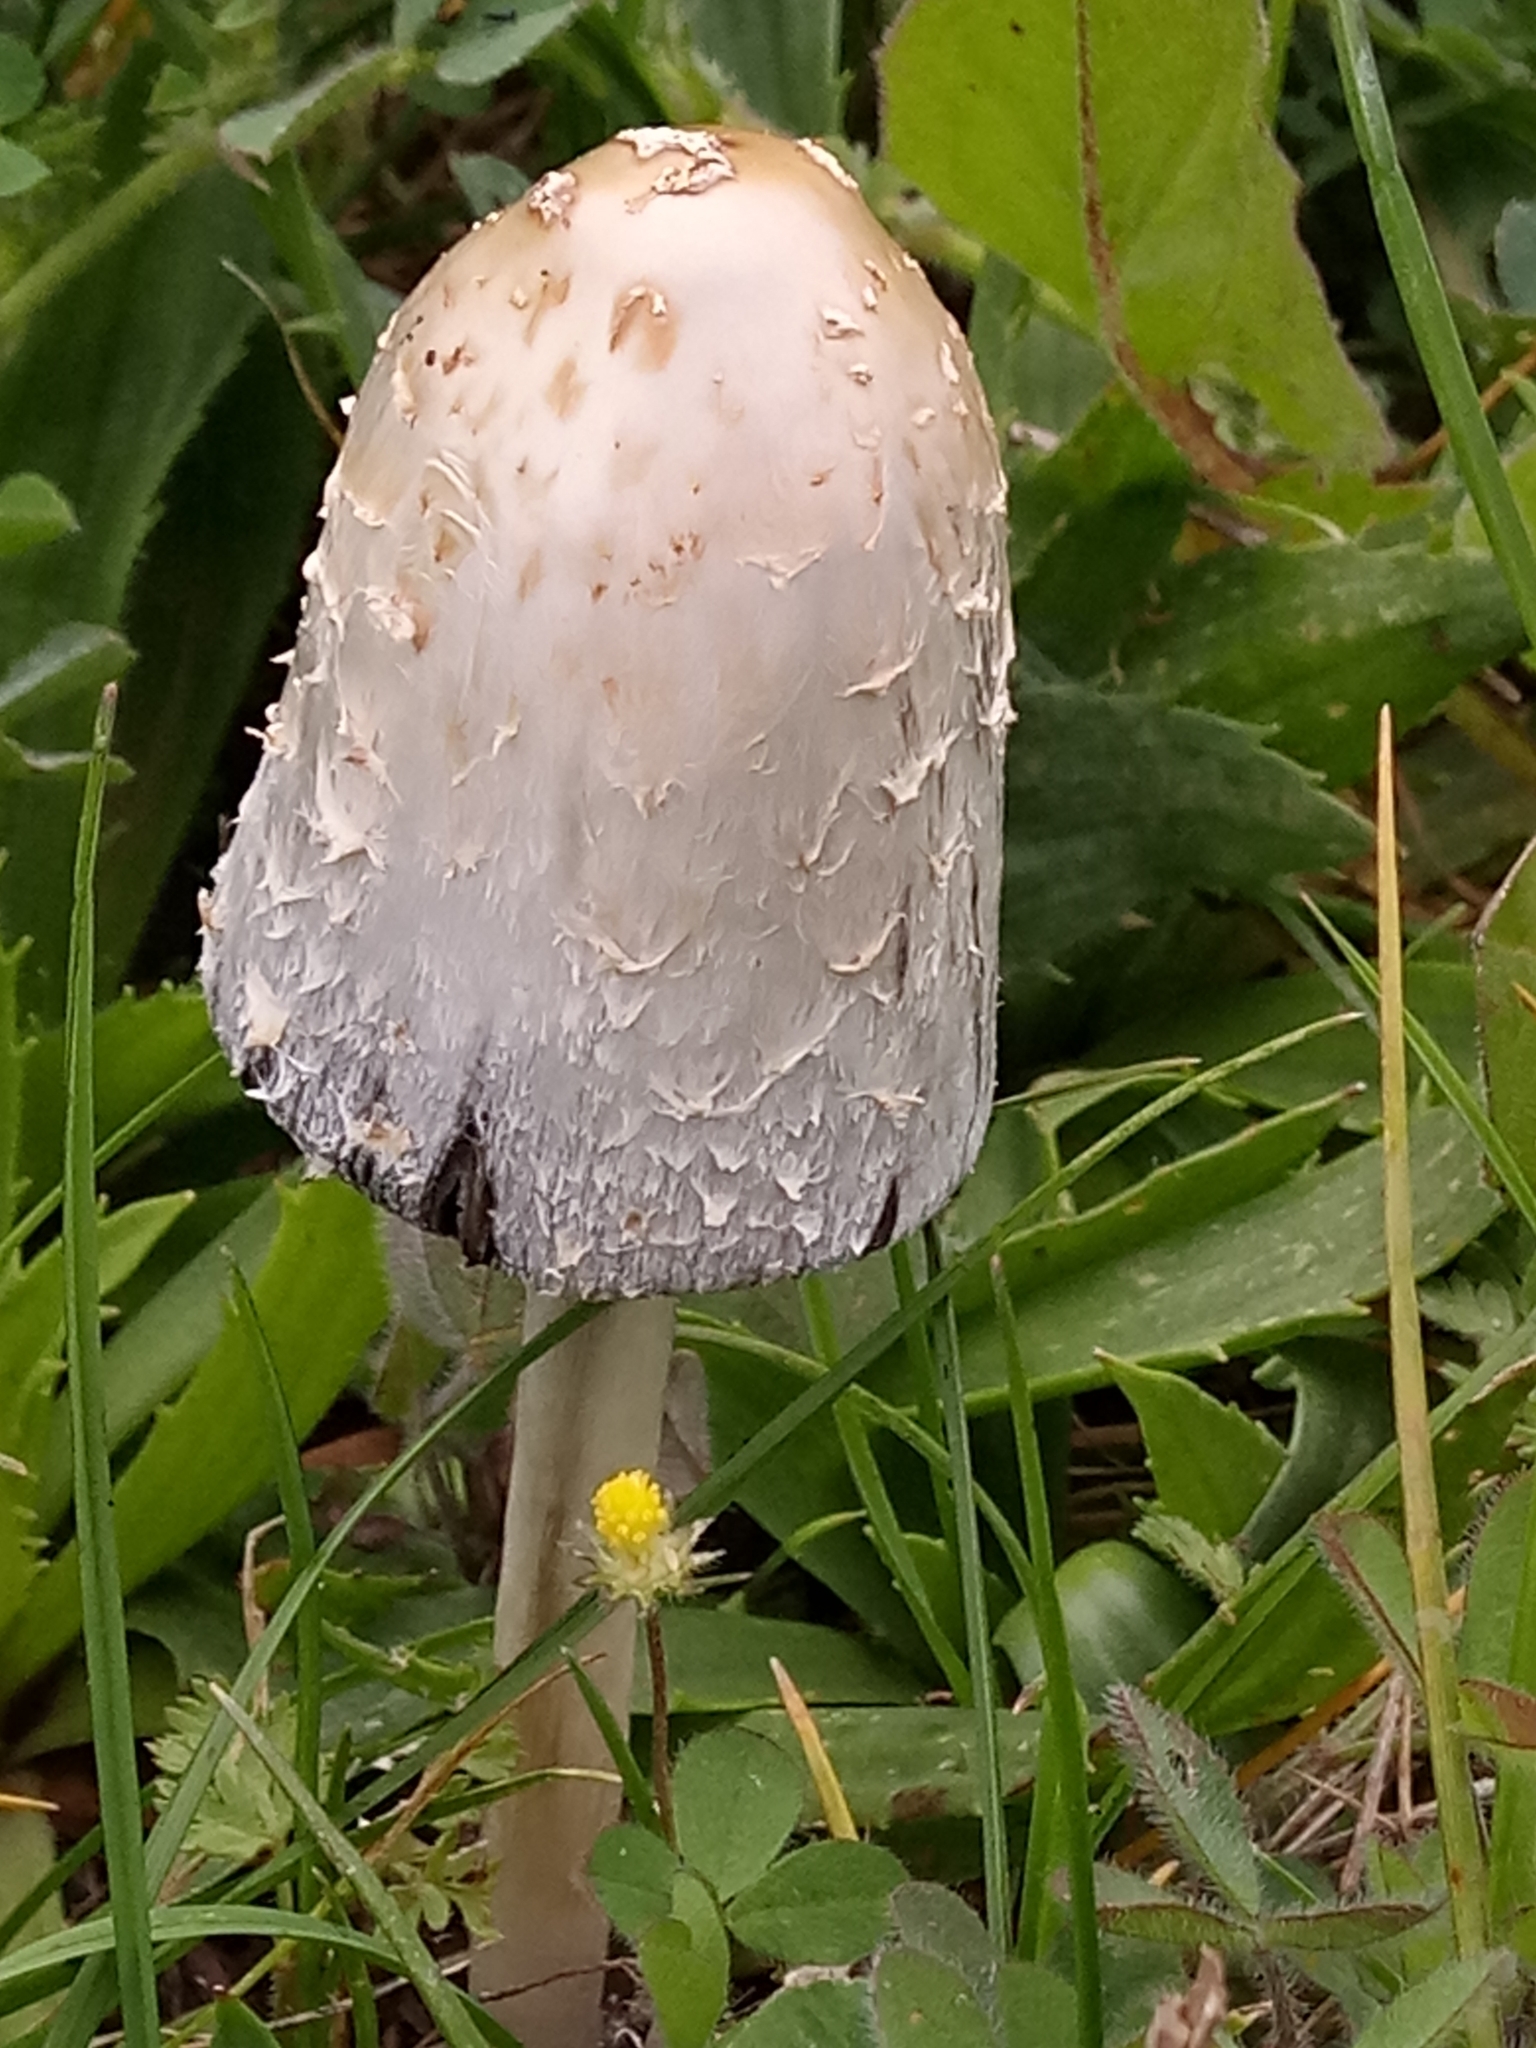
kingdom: Fungi
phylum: Basidiomycota
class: Agaricomycetes
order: Agaricales
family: Agaricaceae
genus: Coprinus
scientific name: Coprinus comatus
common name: Lawyer's wig
